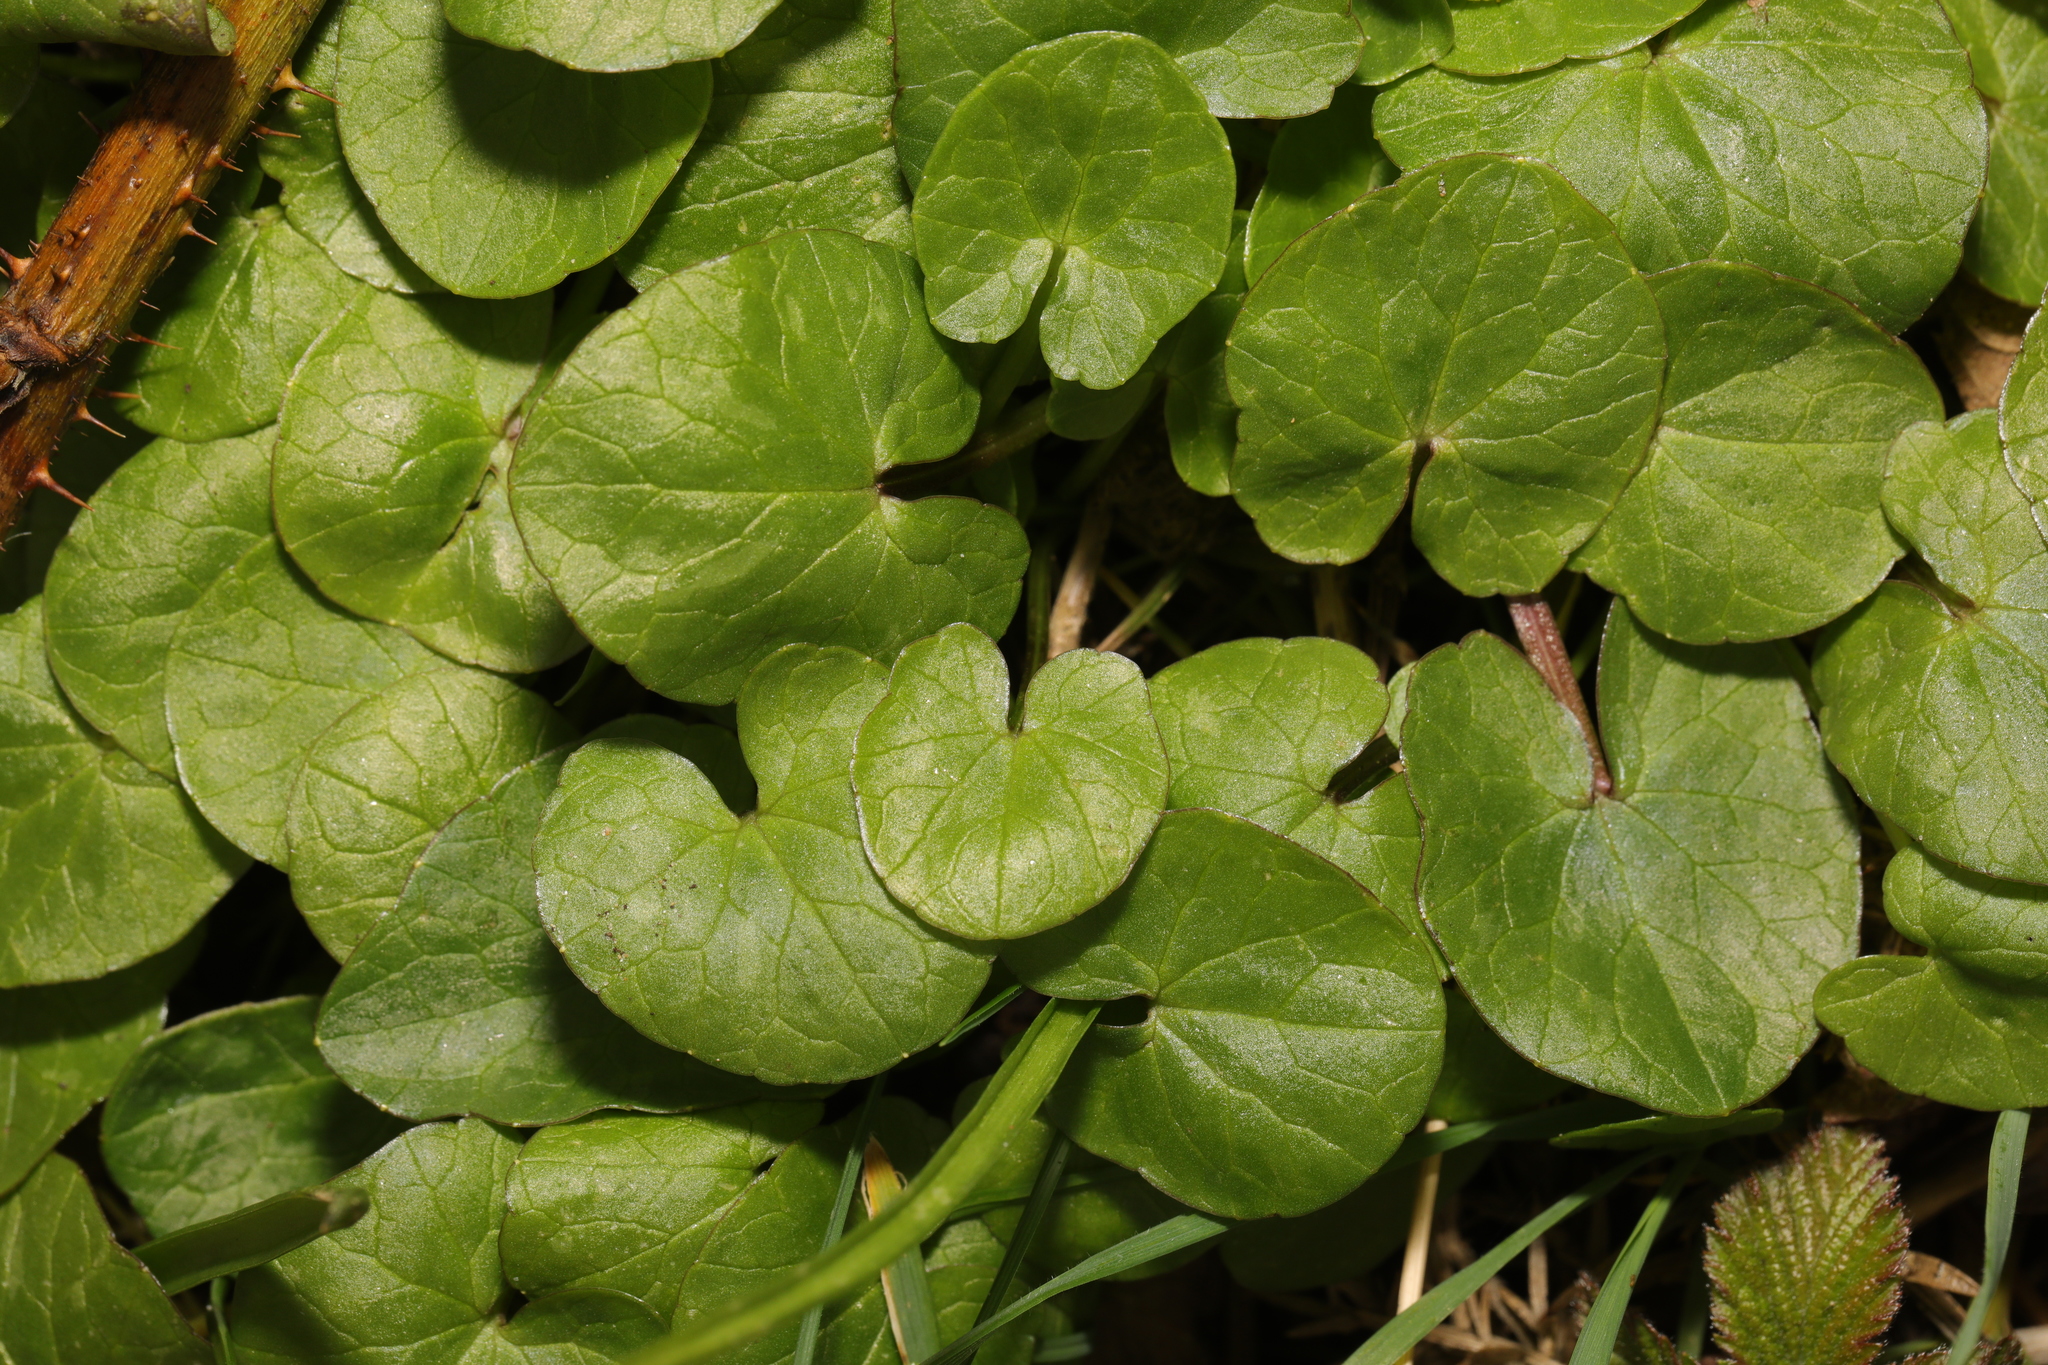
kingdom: Plantae
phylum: Tracheophyta
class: Magnoliopsida
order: Ranunculales
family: Ranunculaceae
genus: Ficaria
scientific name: Ficaria verna
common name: Lesser celandine
